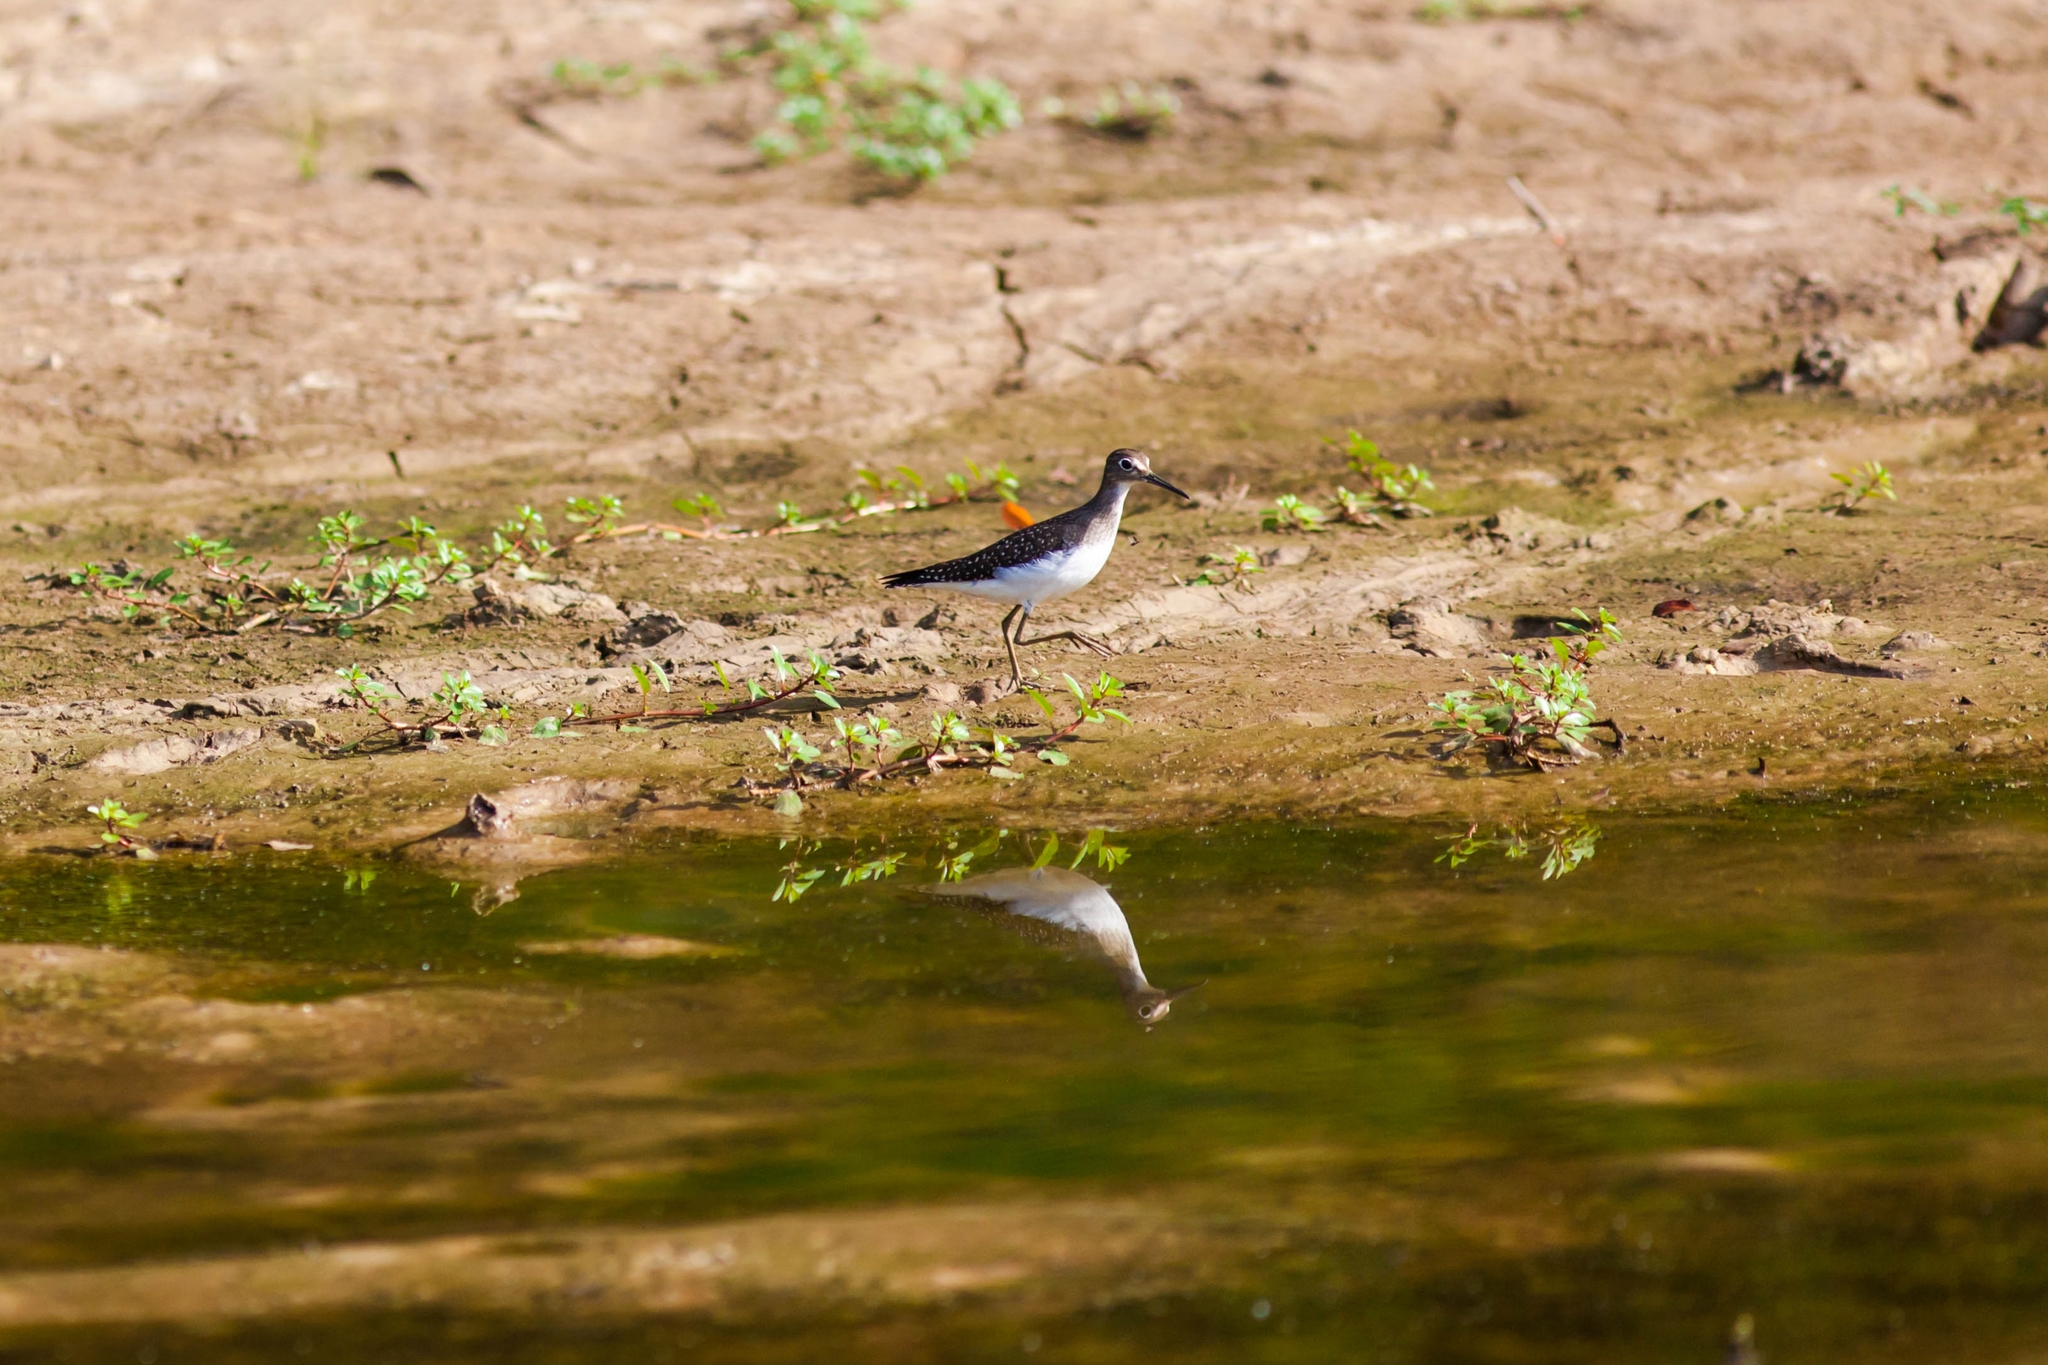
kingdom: Animalia
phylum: Chordata
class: Aves
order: Charadriiformes
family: Scolopacidae
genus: Tringa
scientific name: Tringa solitaria
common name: Solitary sandpiper
